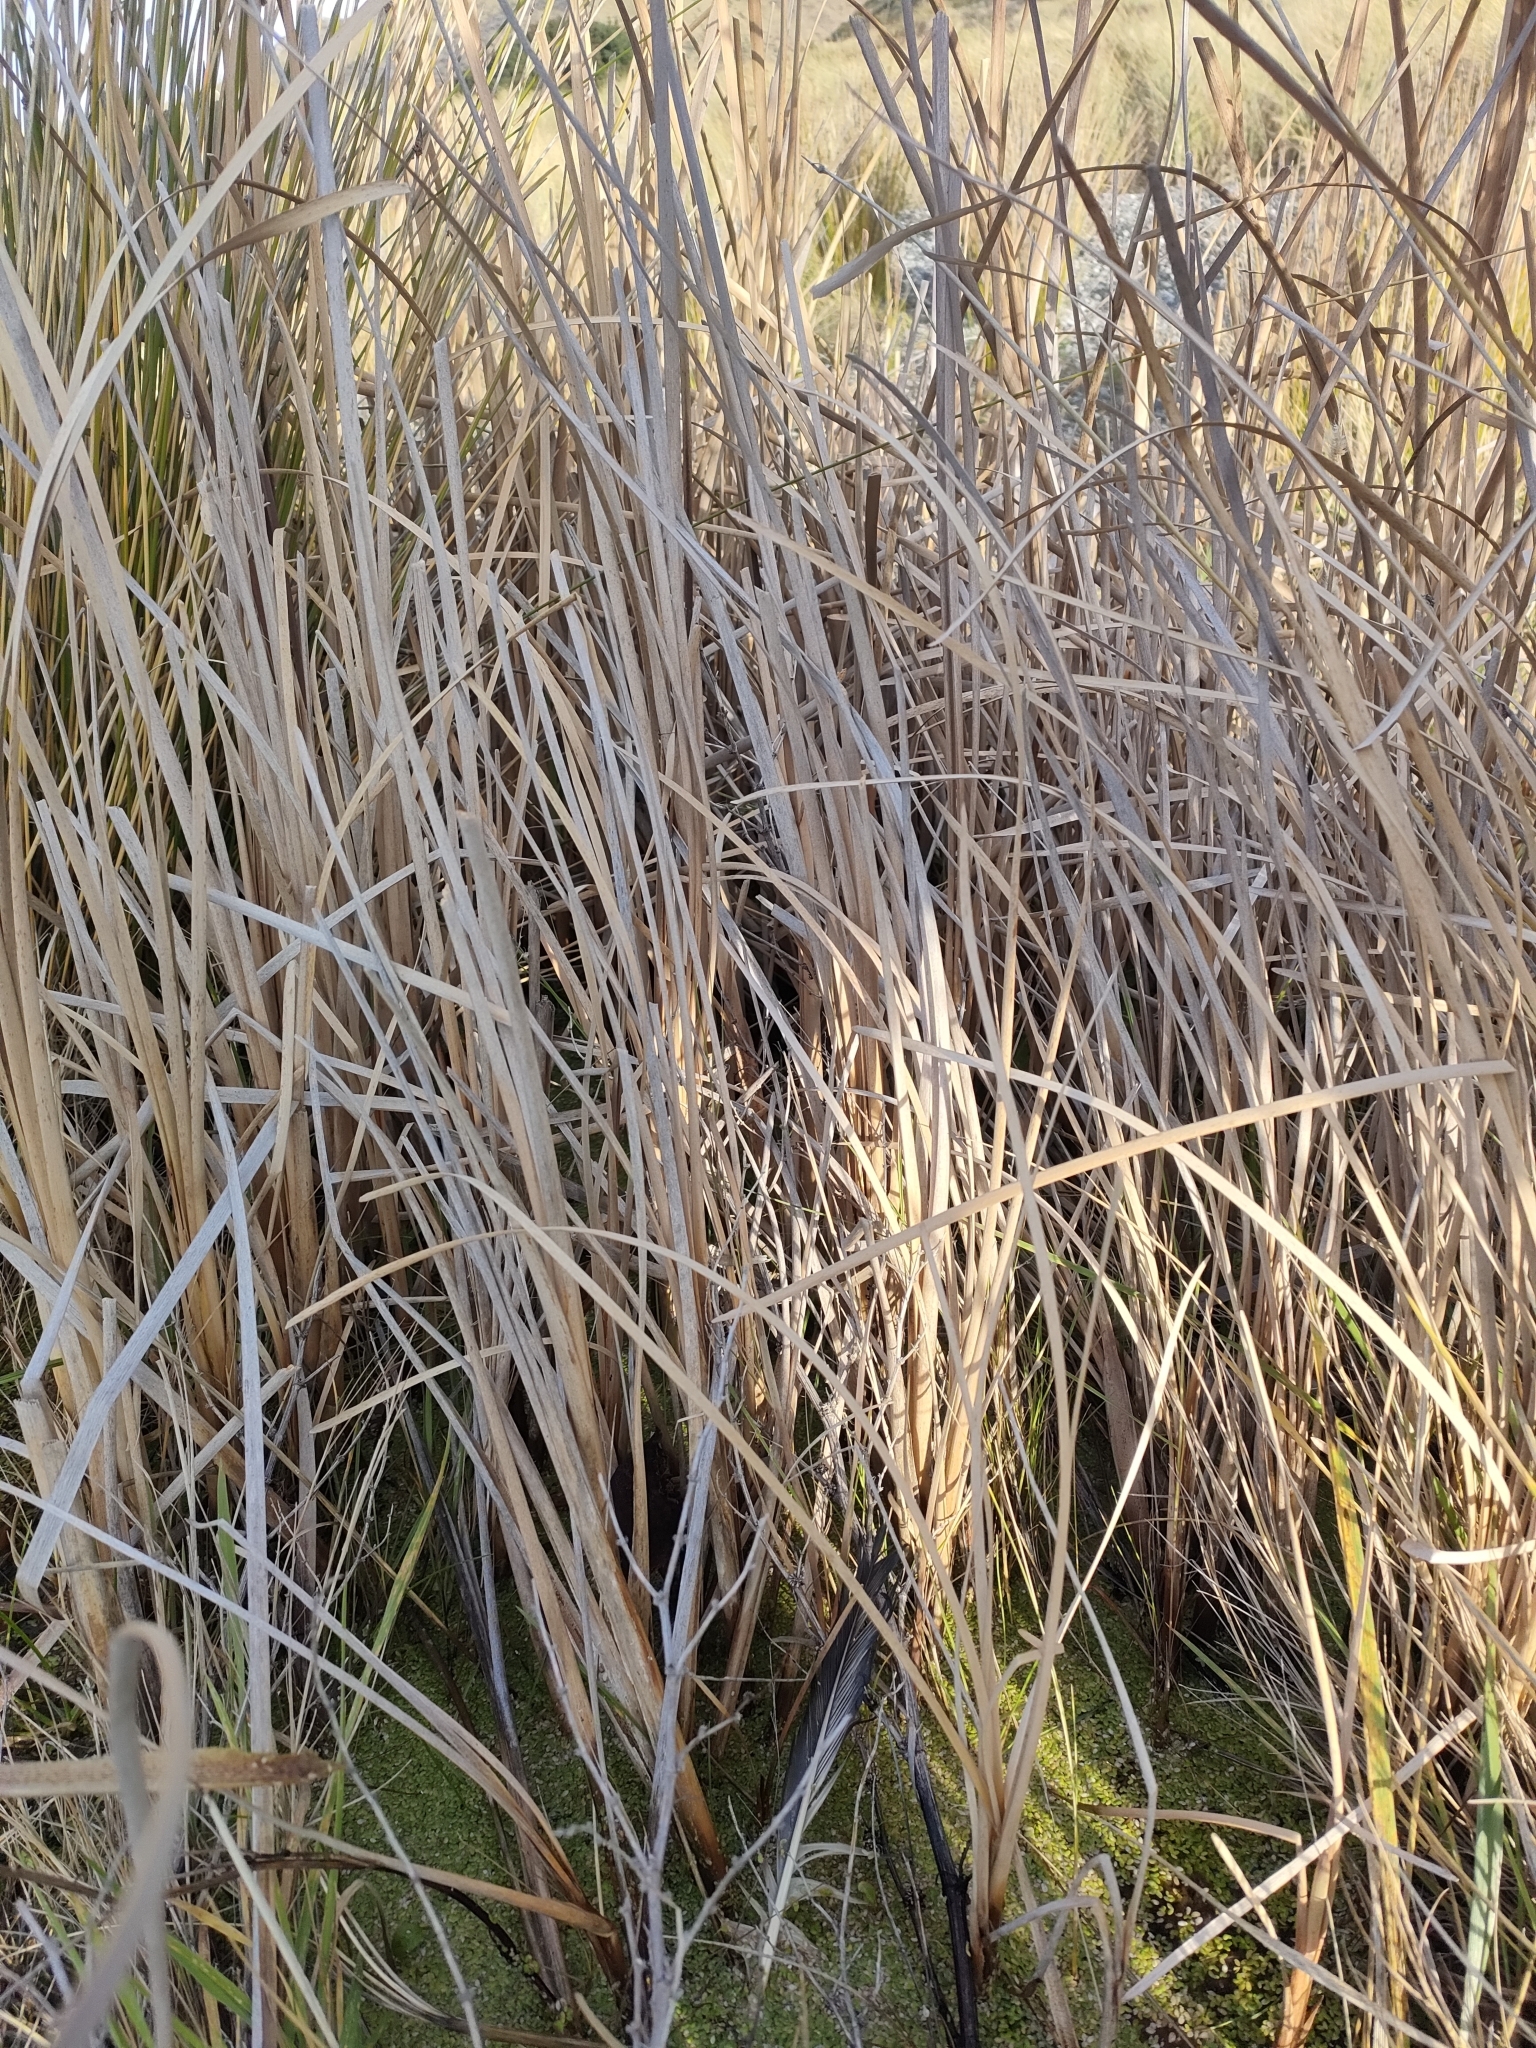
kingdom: Plantae
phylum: Tracheophyta
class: Liliopsida
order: Poales
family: Typhaceae
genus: Typha
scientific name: Typha orientalis
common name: Bullrush
